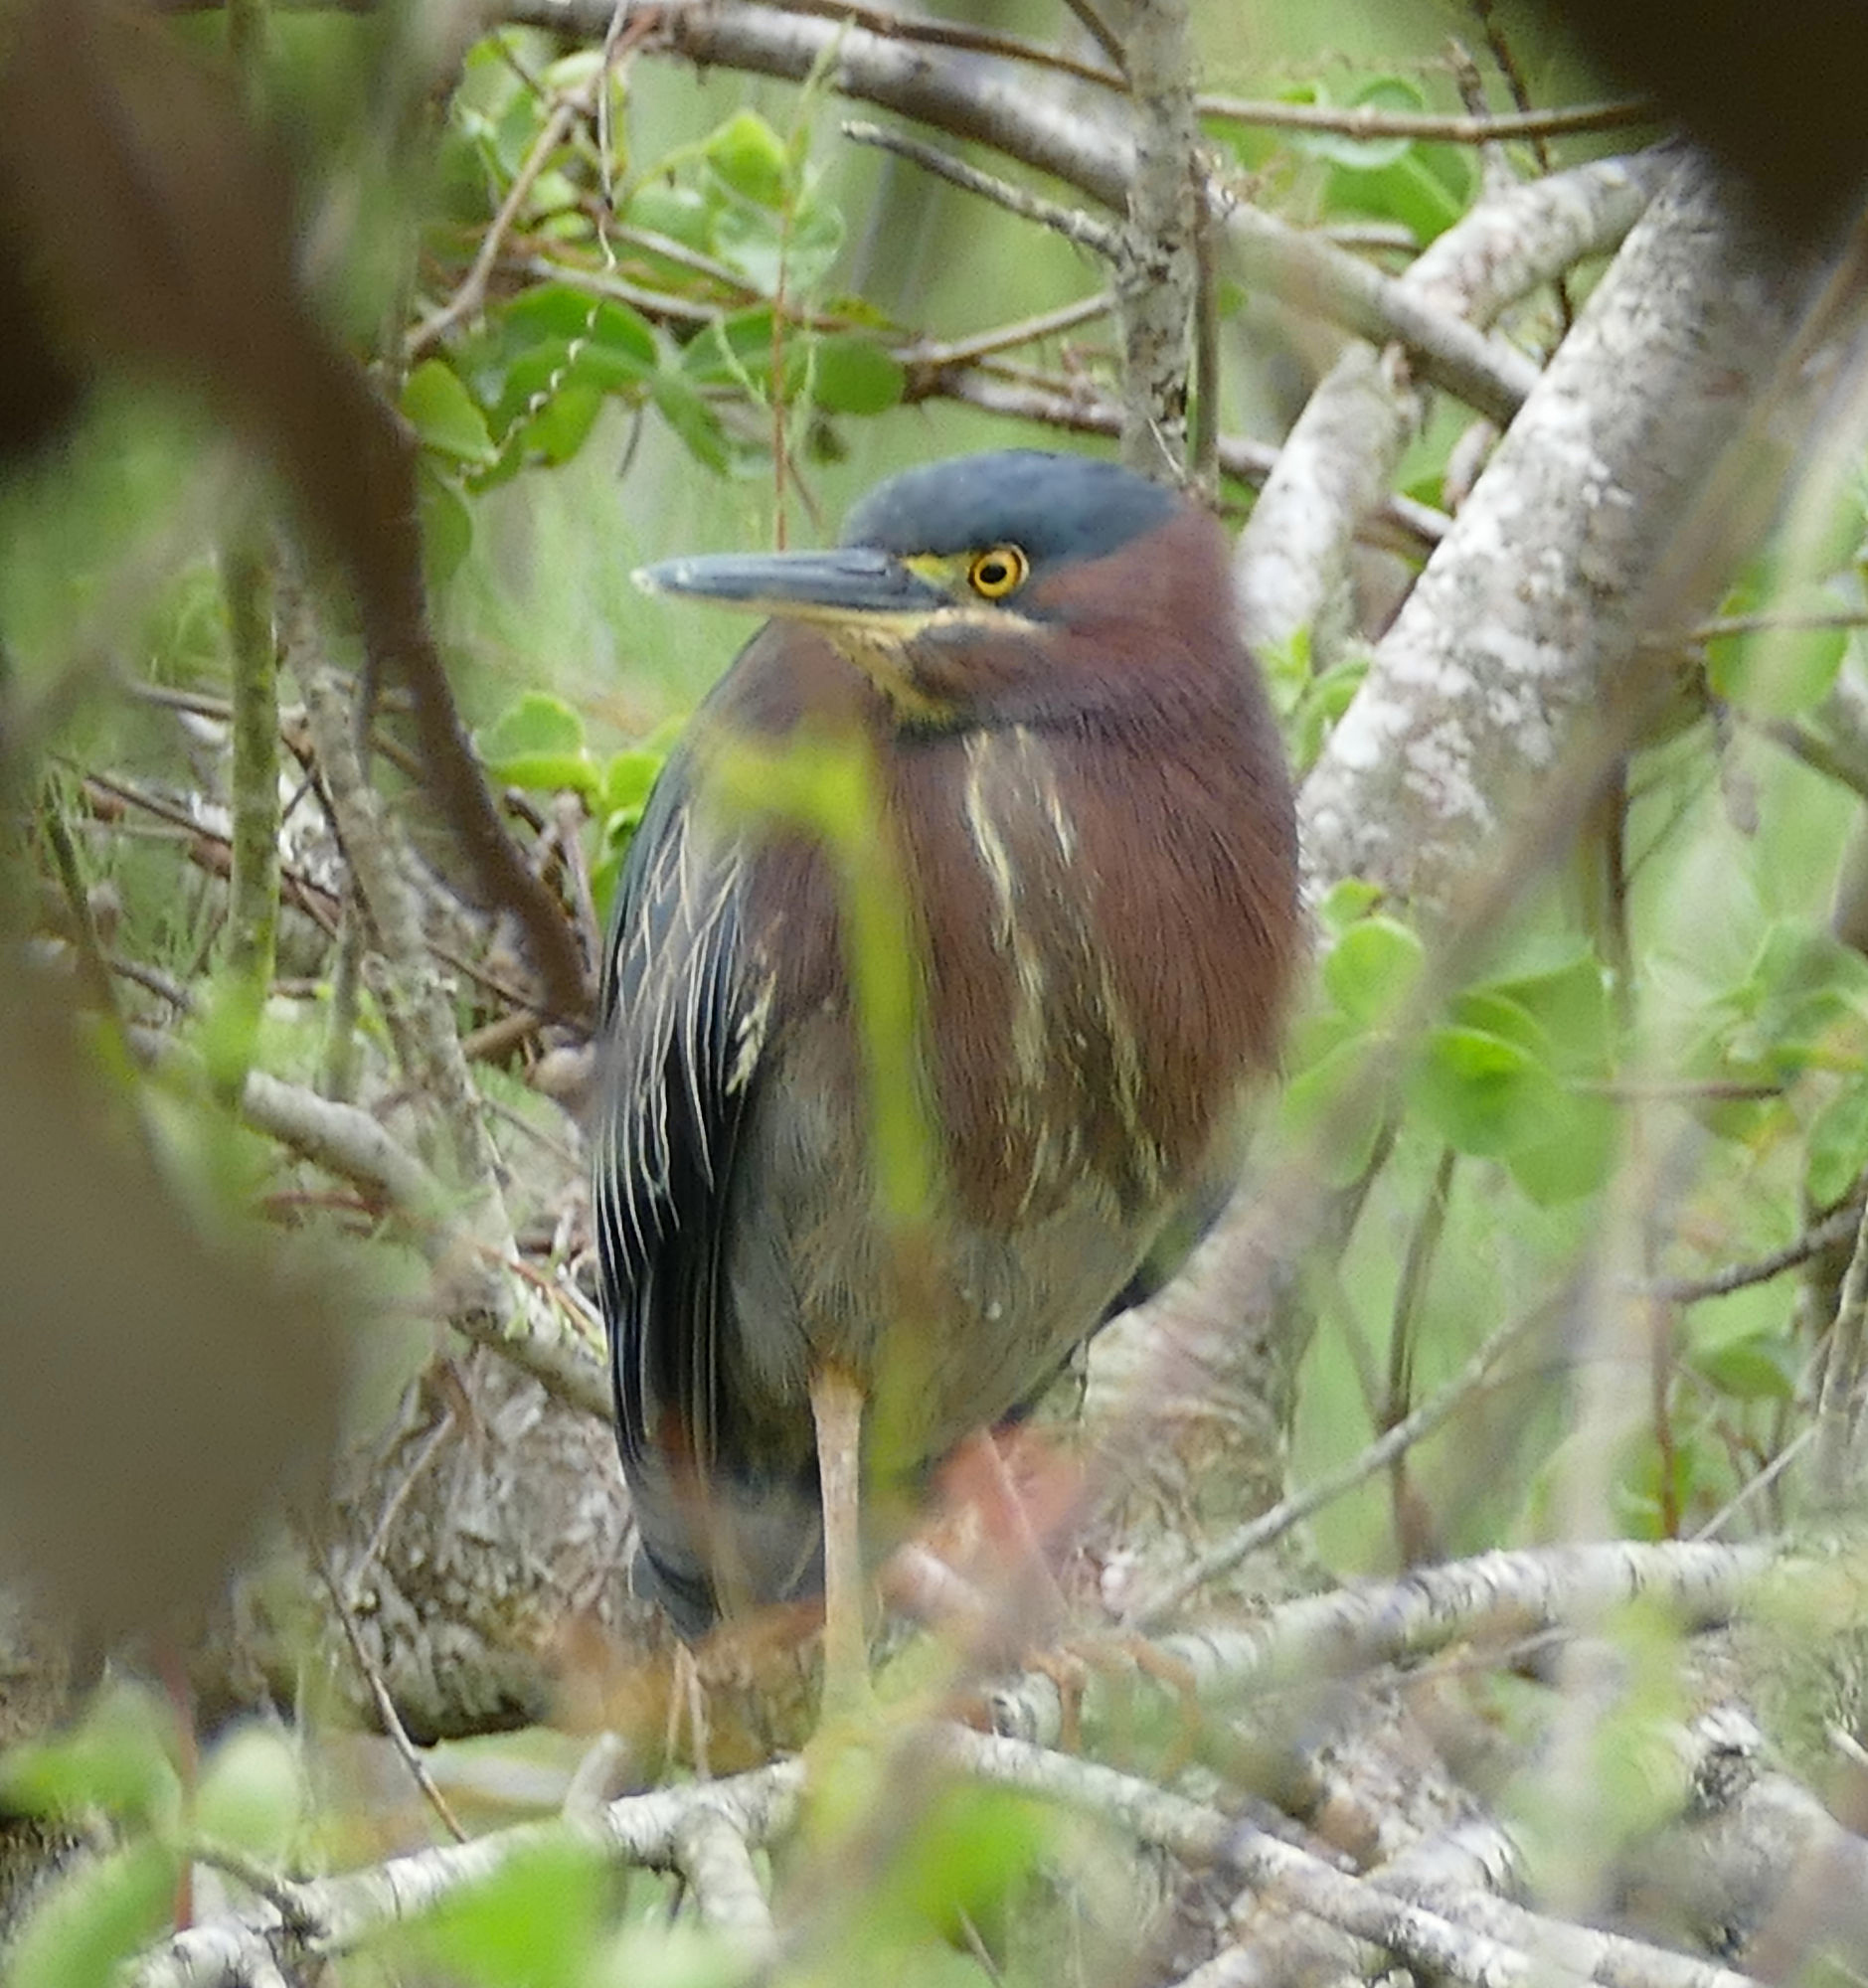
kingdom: Animalia
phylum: Chordata
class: Aves
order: Pelecaniformes
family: Ardeidae
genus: Butorides
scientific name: Butorides virescens
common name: Green heron
